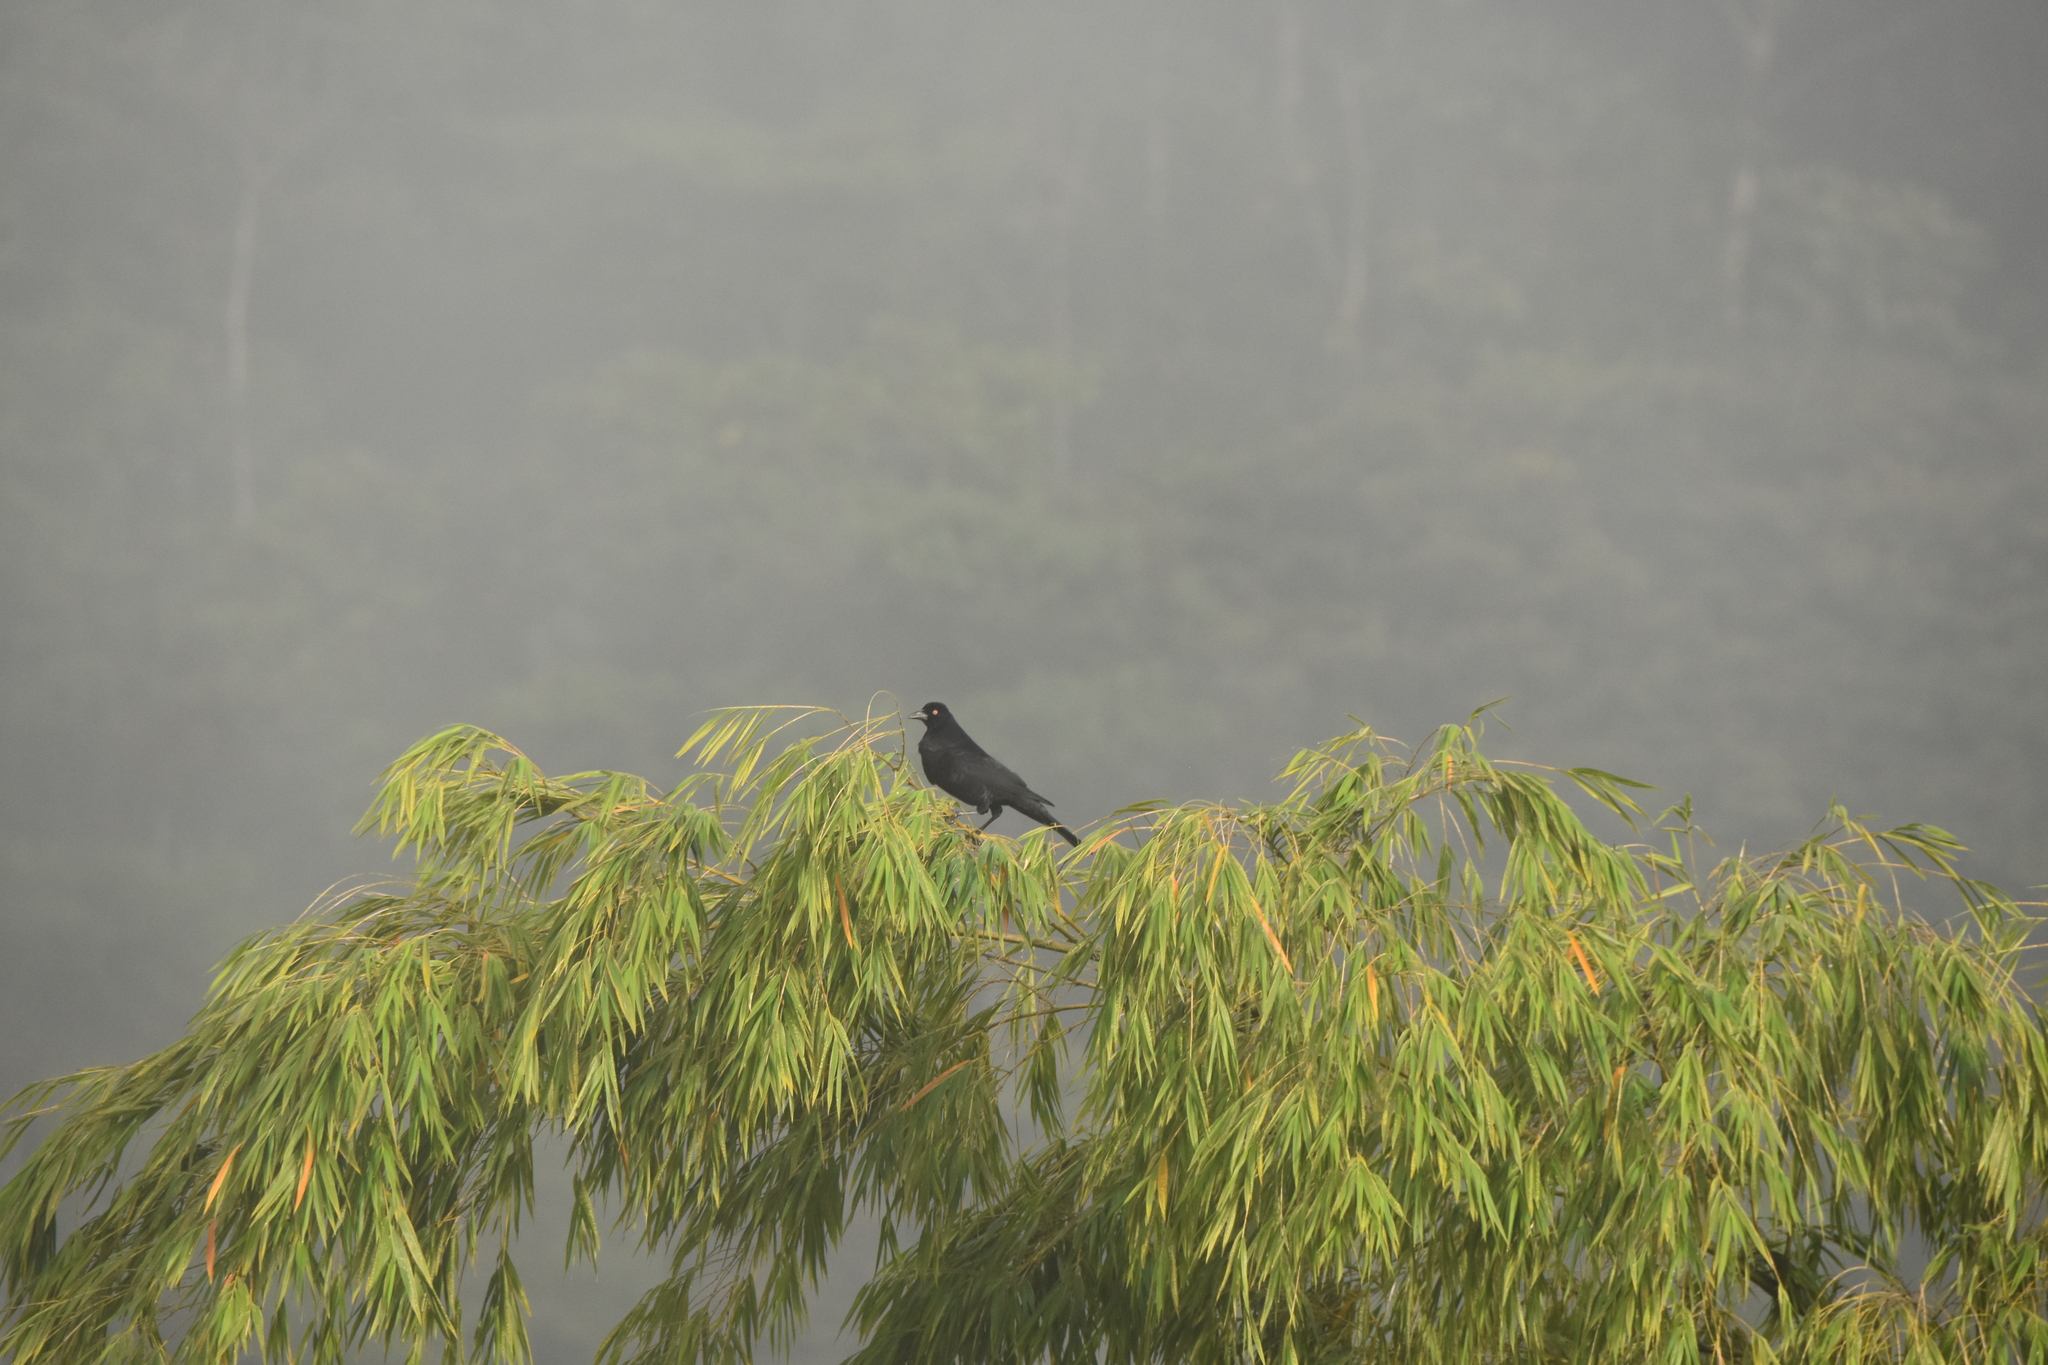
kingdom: Animalia
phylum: Chordata
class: Aves
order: Passeriformes
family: Icteridae
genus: Molothrus
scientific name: Molothrus oryzivorus
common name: Giant cowbird
